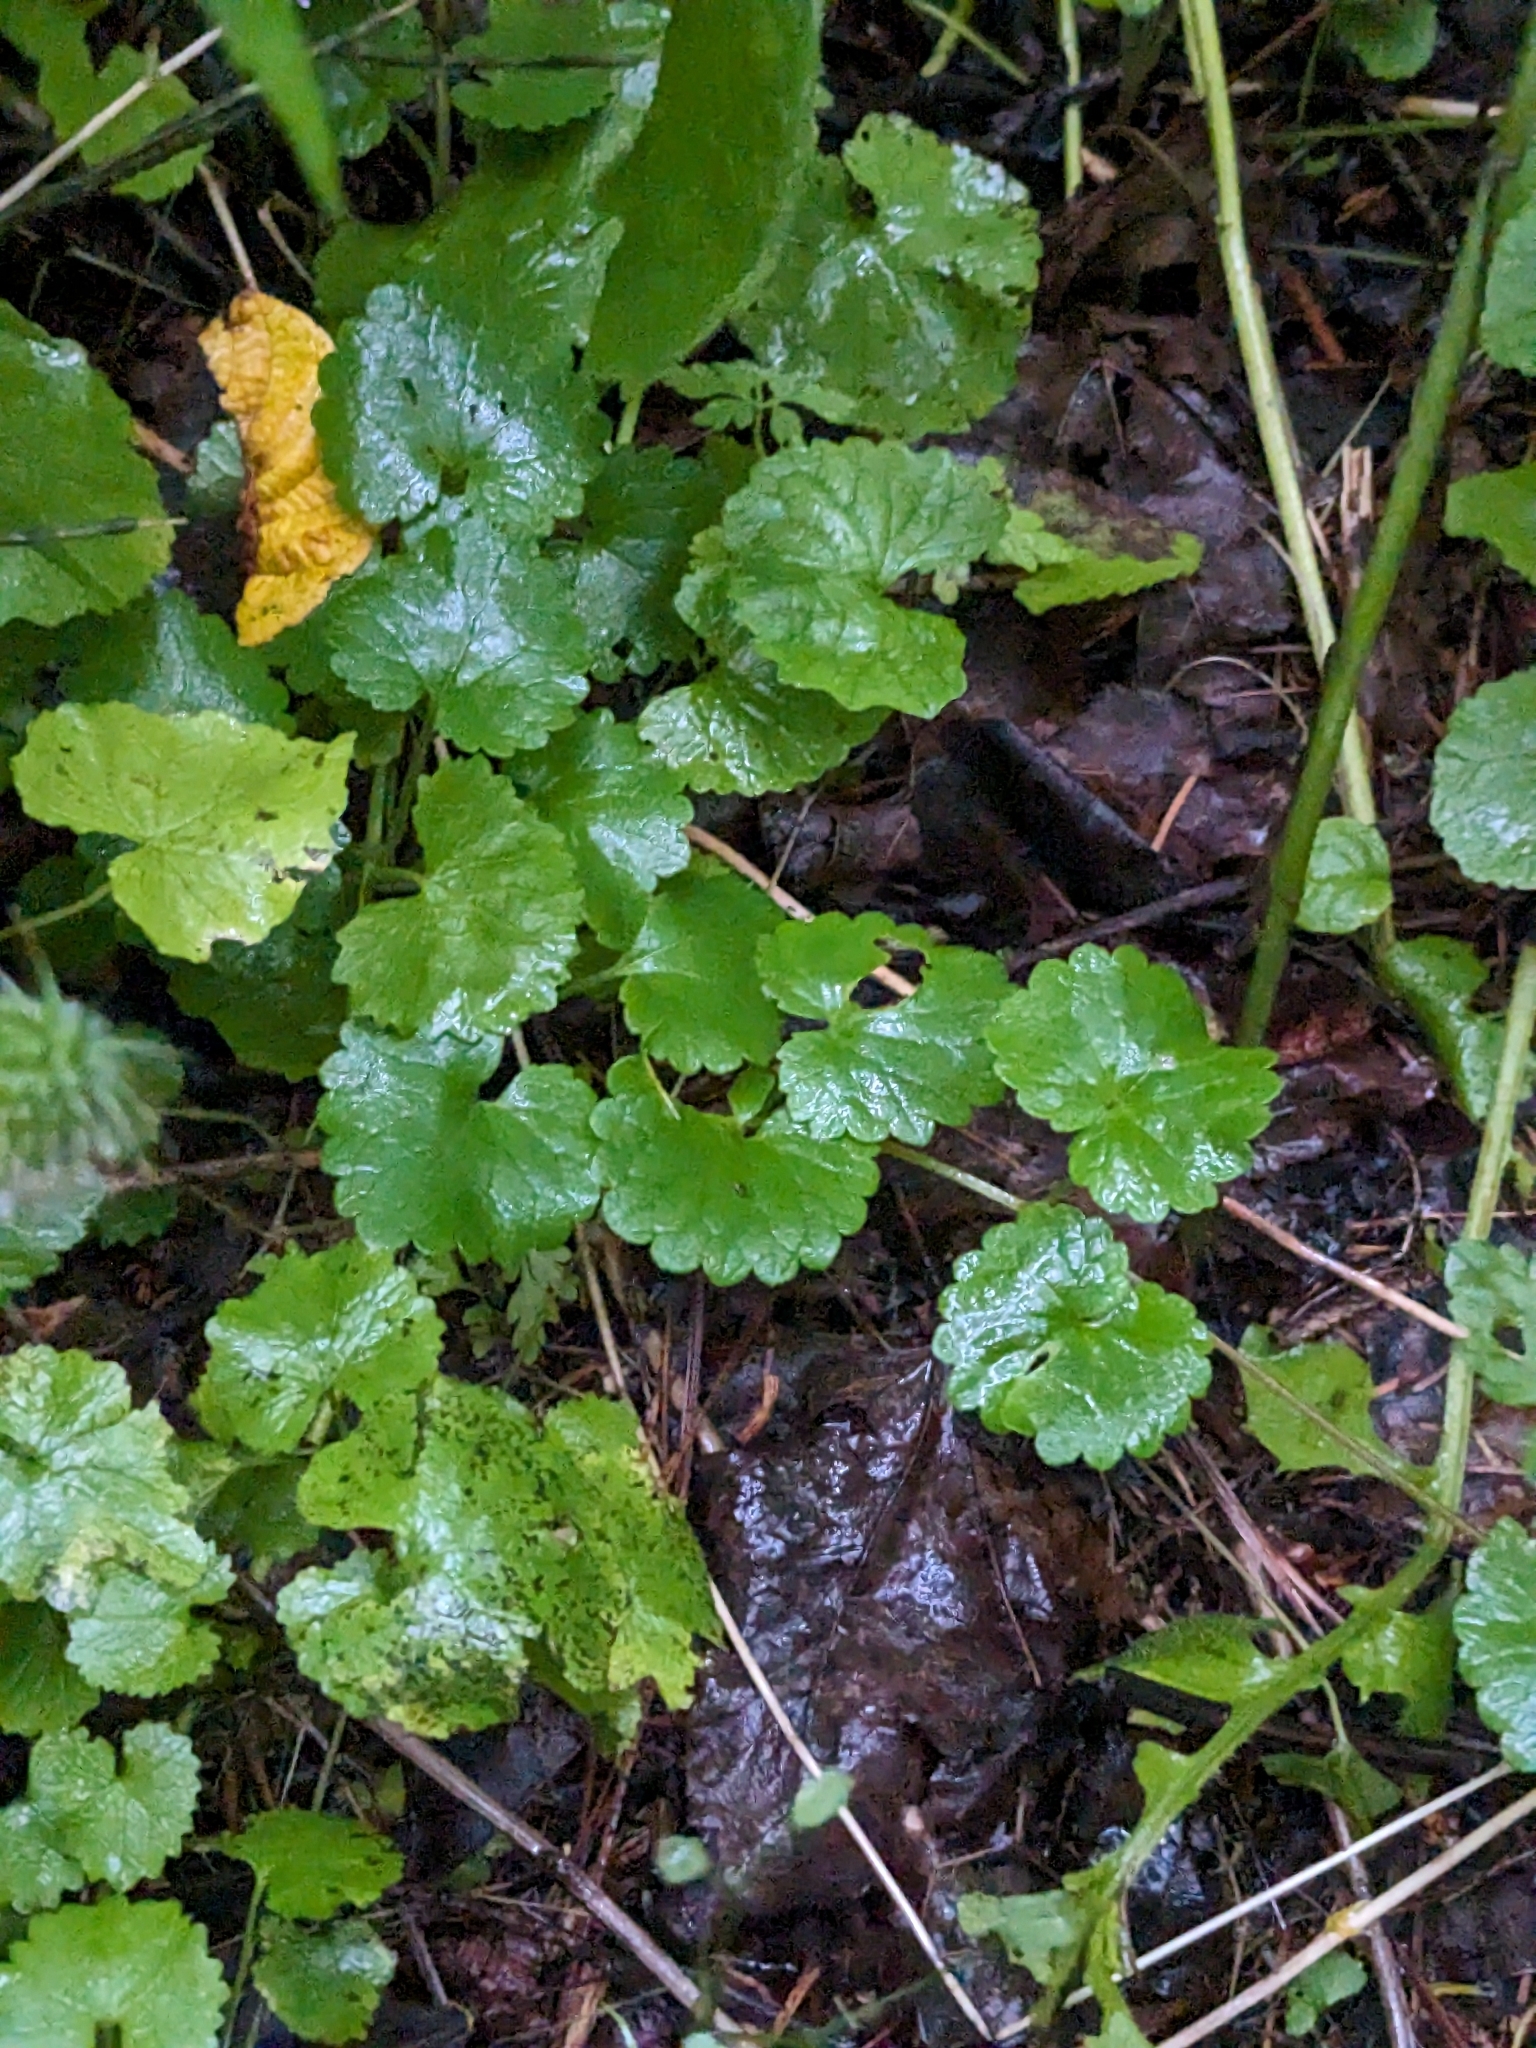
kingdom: Plantae
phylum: Tracheophyta
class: Magnoliopsida
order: Lamiales
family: Lamiaceae
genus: Glechoma
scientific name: Glechoma hederacea
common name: Ground ivy
